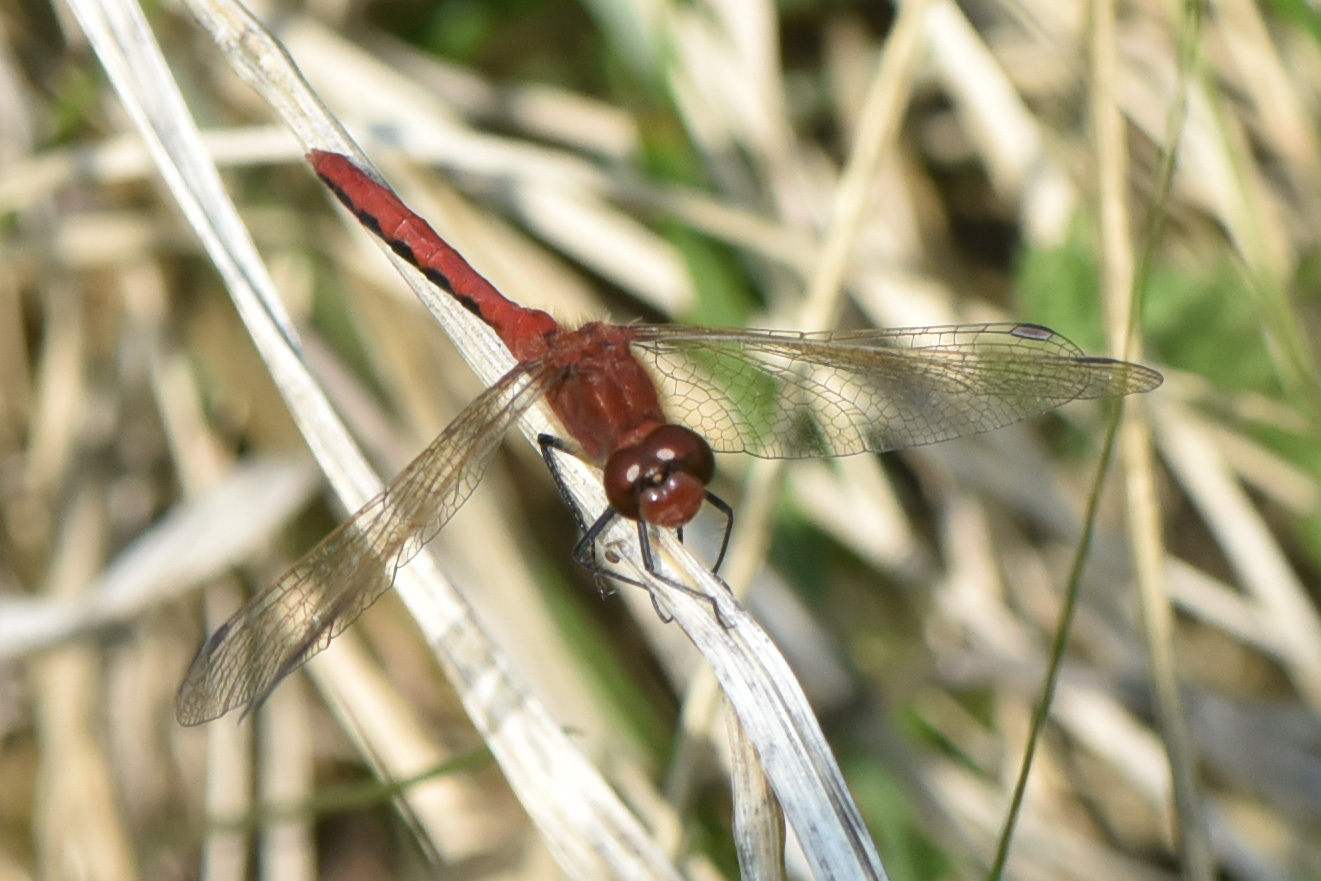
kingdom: Animalia
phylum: Arthropoda
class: Insecta
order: Odonata
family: Libellulidae
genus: Sympetrum
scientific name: Sympetrum internum
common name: Cherry-faced meadowhawk
